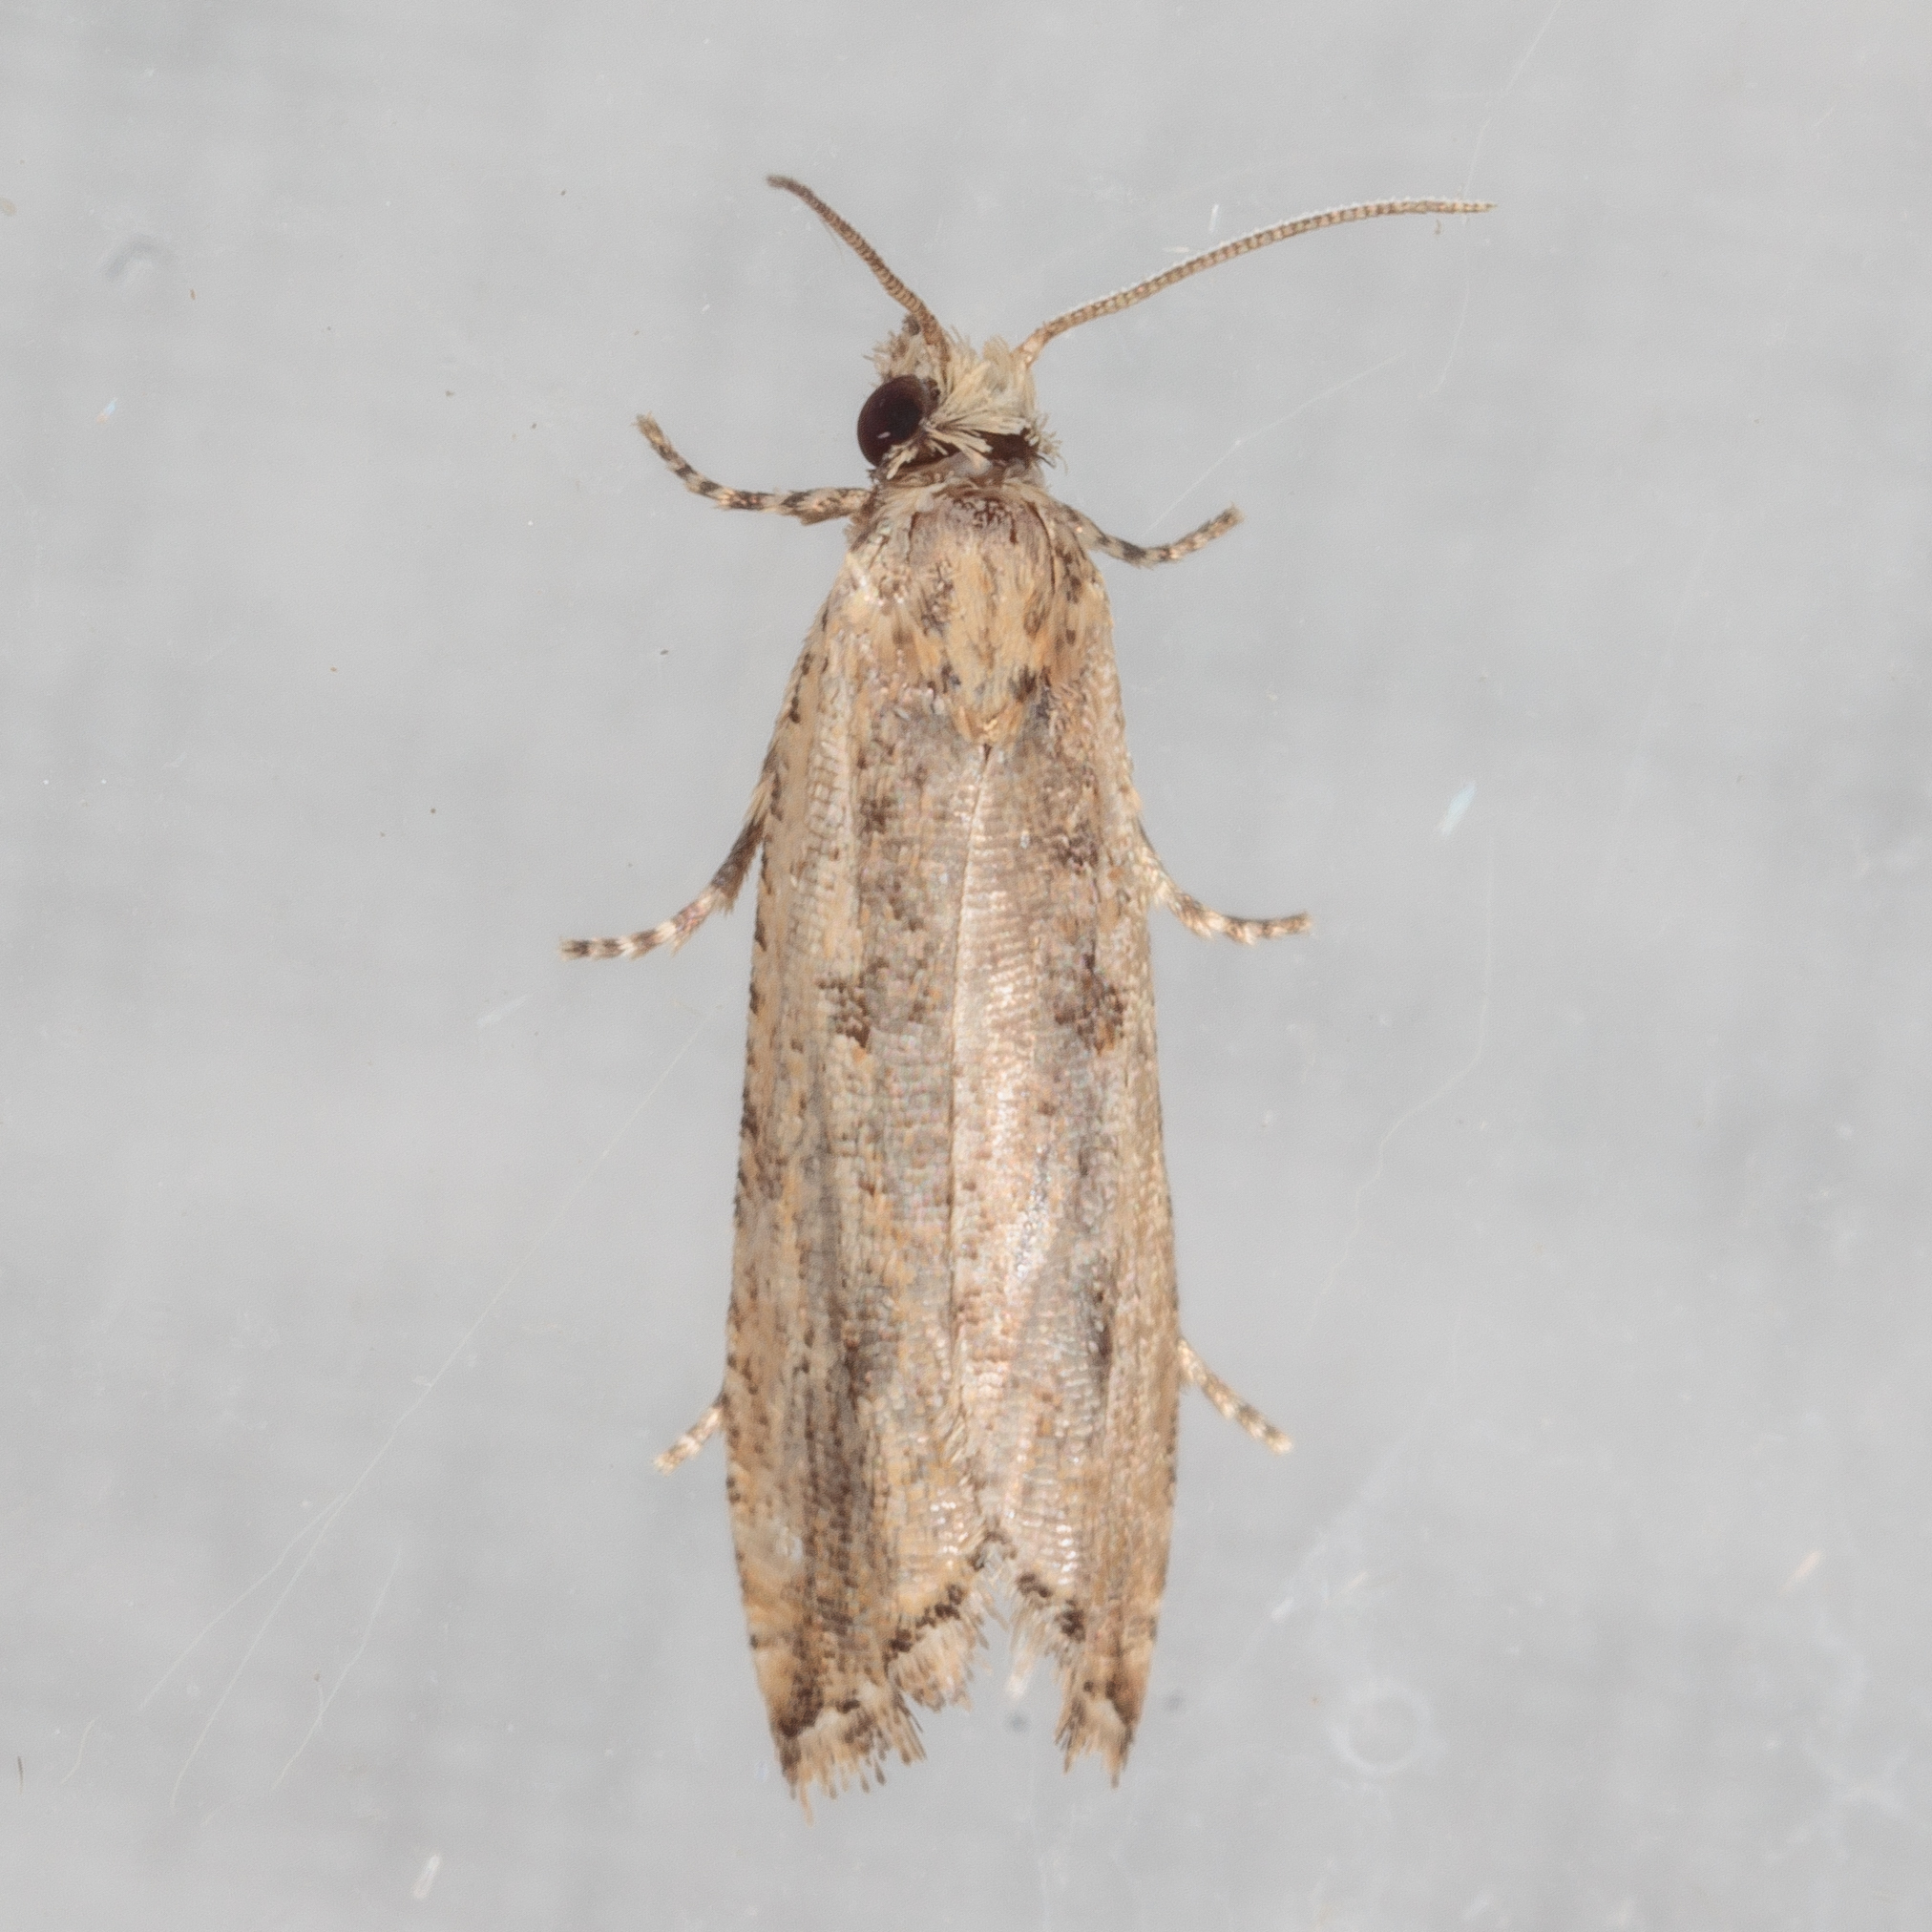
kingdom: Animalia
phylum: Arthropoda
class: Insecta
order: Lepidoptera
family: Tortricidae
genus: Bactra
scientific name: Bactra verutana
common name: Javelin moth
